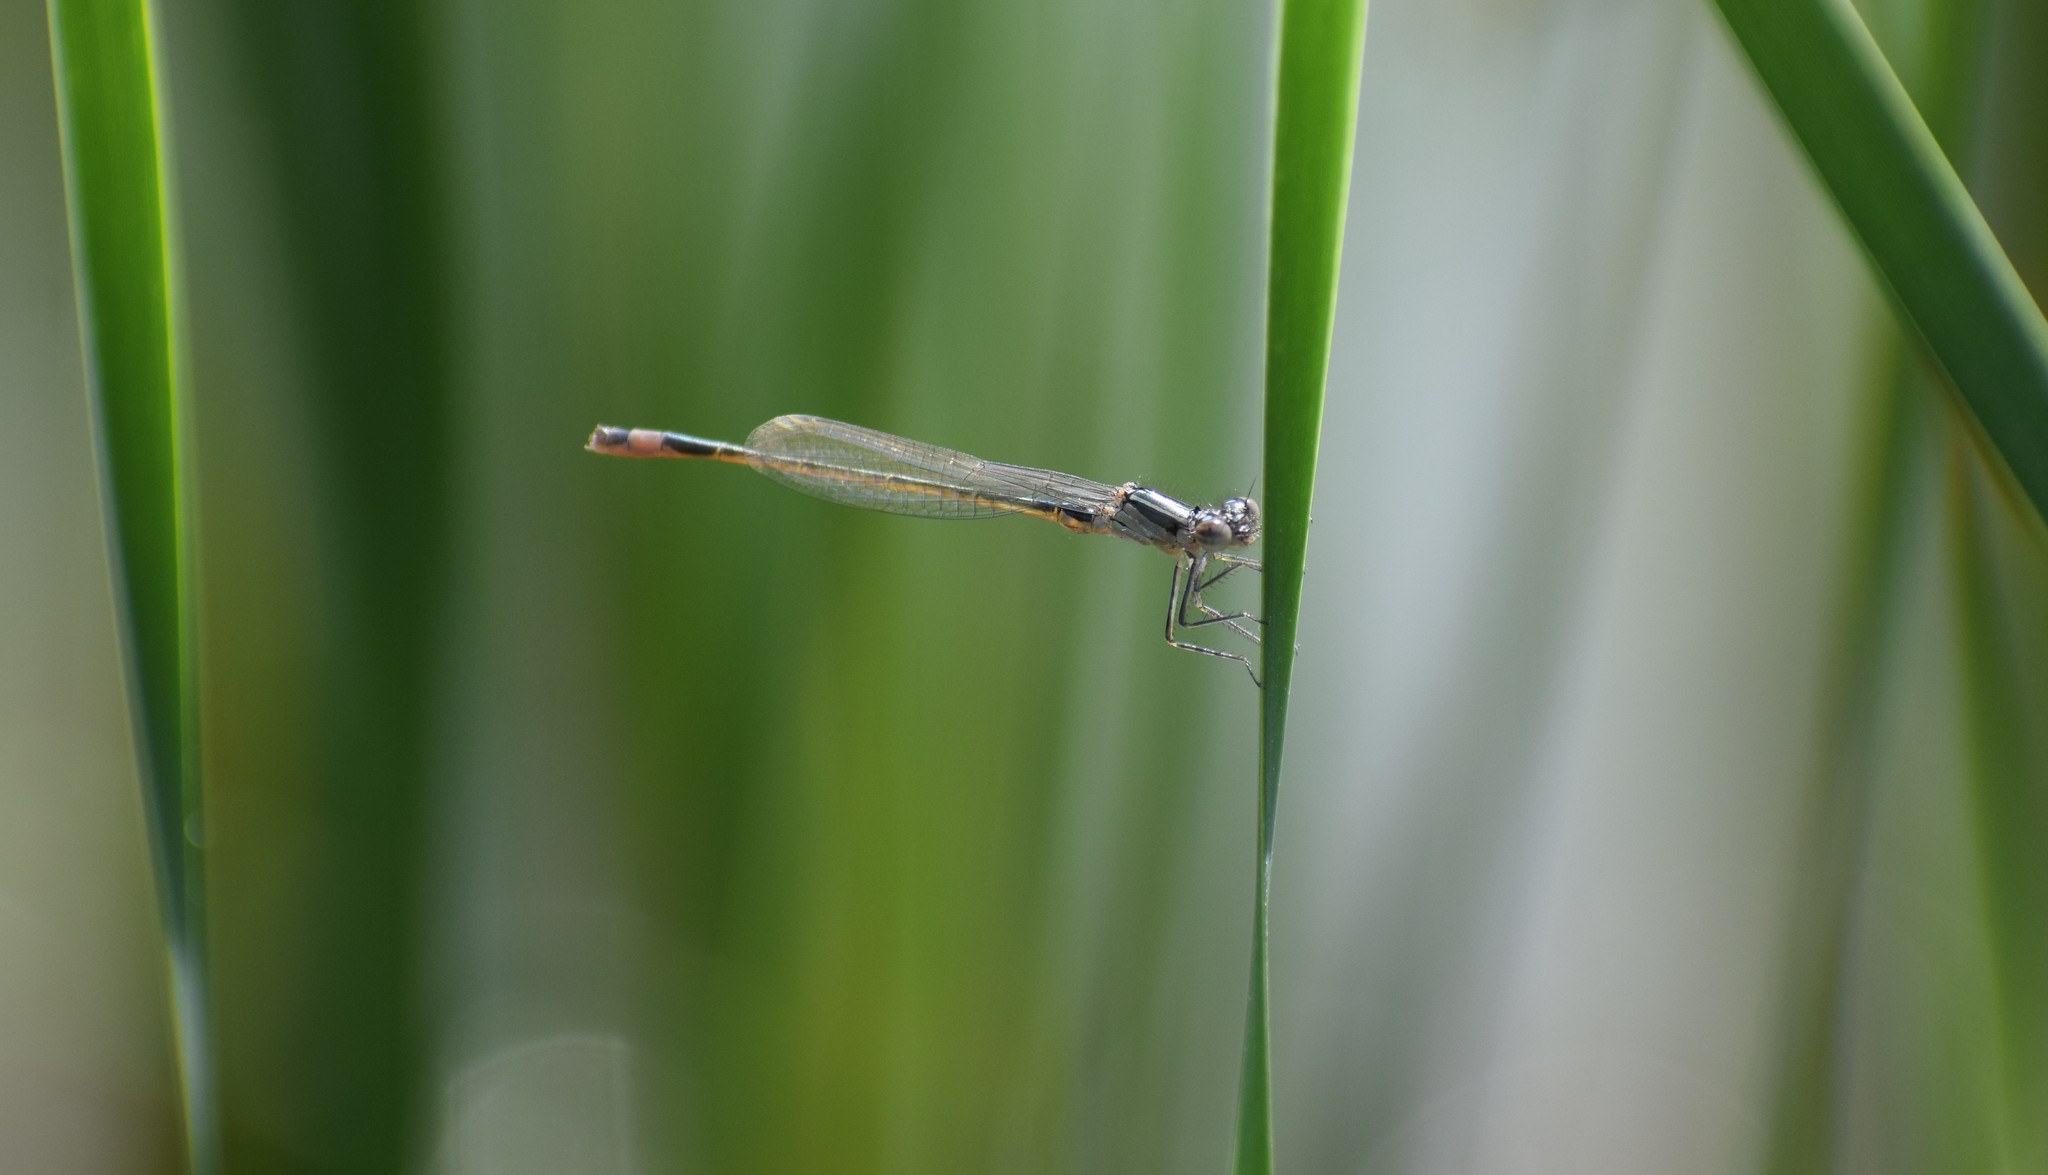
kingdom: Animalia
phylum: Arthropoda
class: Insecta
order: Odonata
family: Coenagrionidae
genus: Ischnura
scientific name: Ischnura elegans
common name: Blue-tailed damselfly
